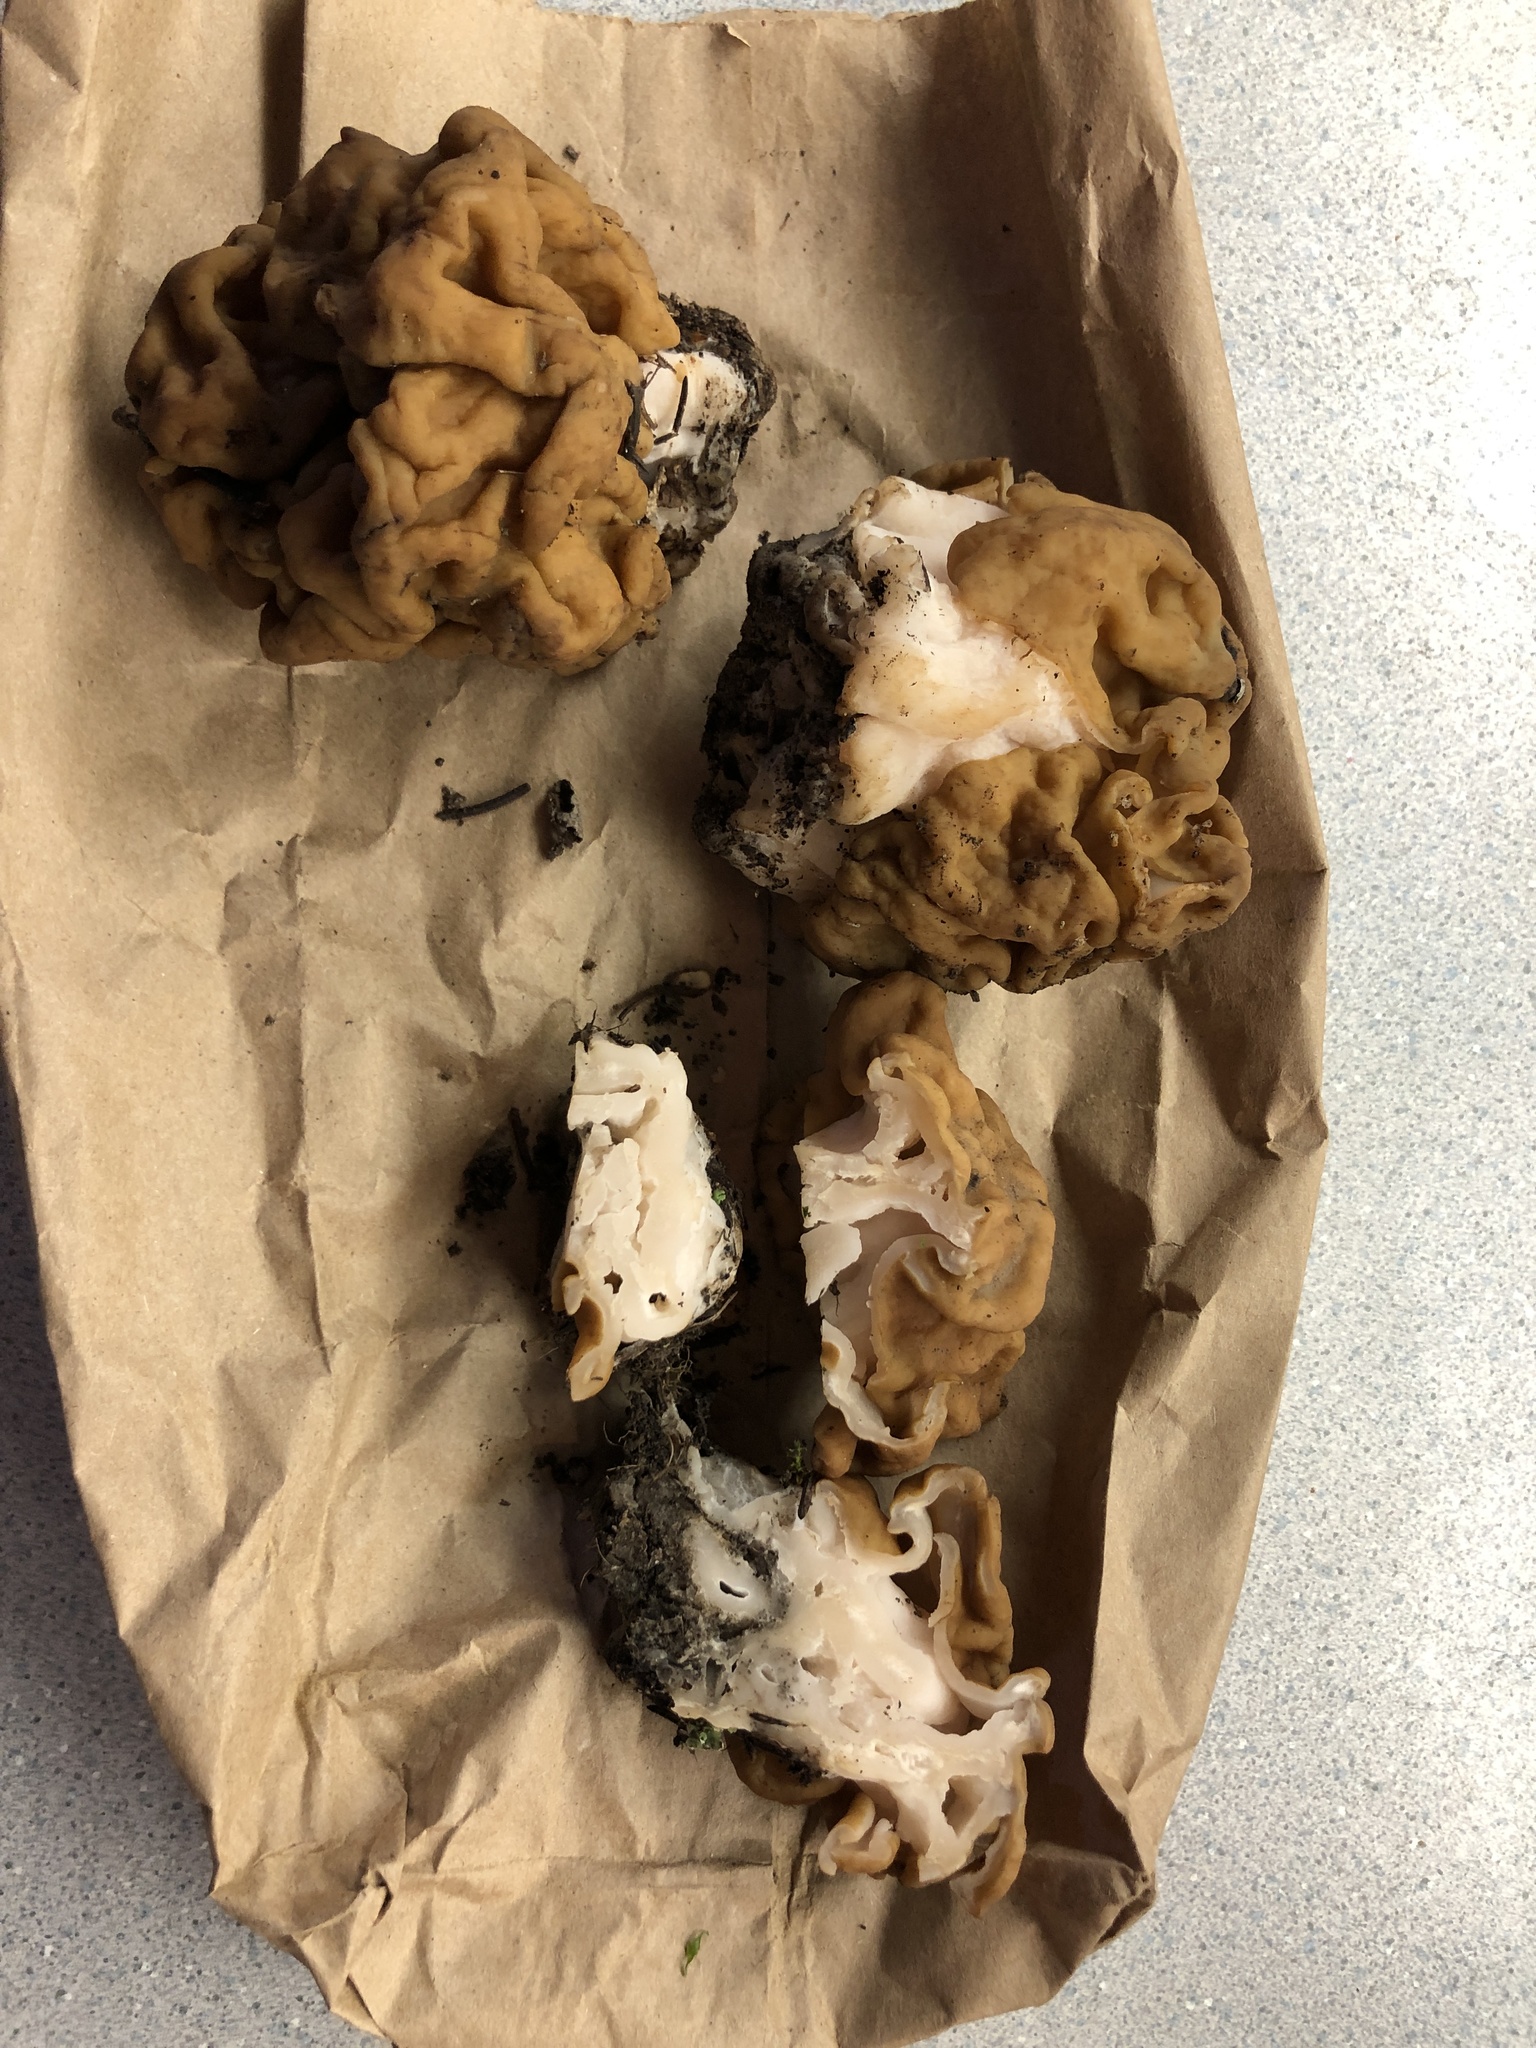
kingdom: Fungi
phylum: Ascomycota
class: Pezizomycetes
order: Pezizales
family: Discinaceae
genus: Discina
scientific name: Discina montana
